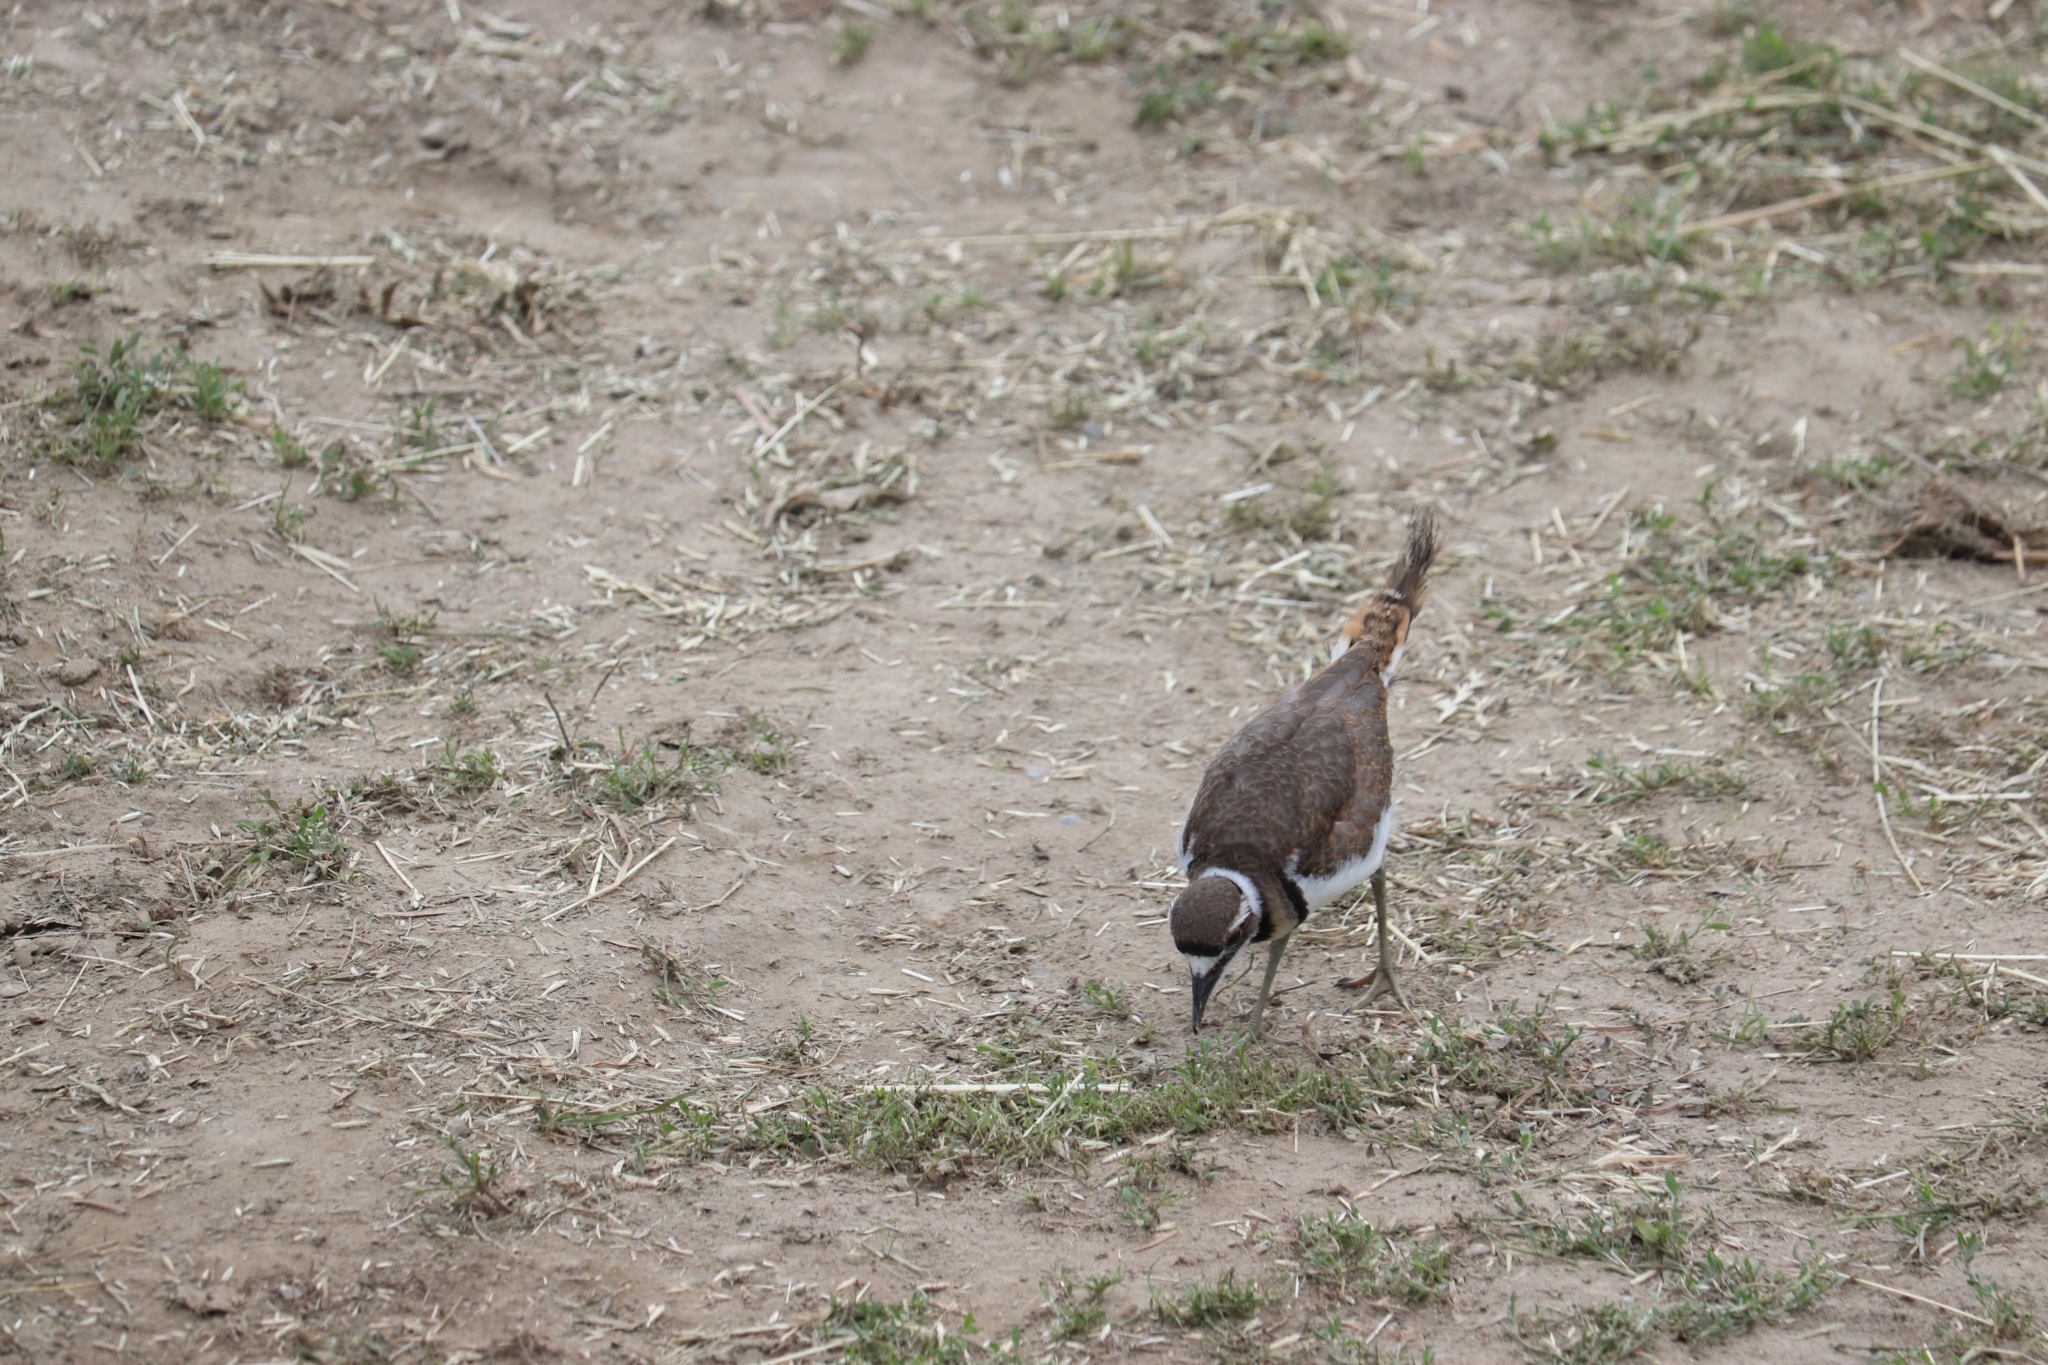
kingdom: Animalia
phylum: Chordata
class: Aves
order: Charadriiformes
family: Charadriidae
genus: Charadrius
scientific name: Charadrius vociferus
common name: Killdeer
